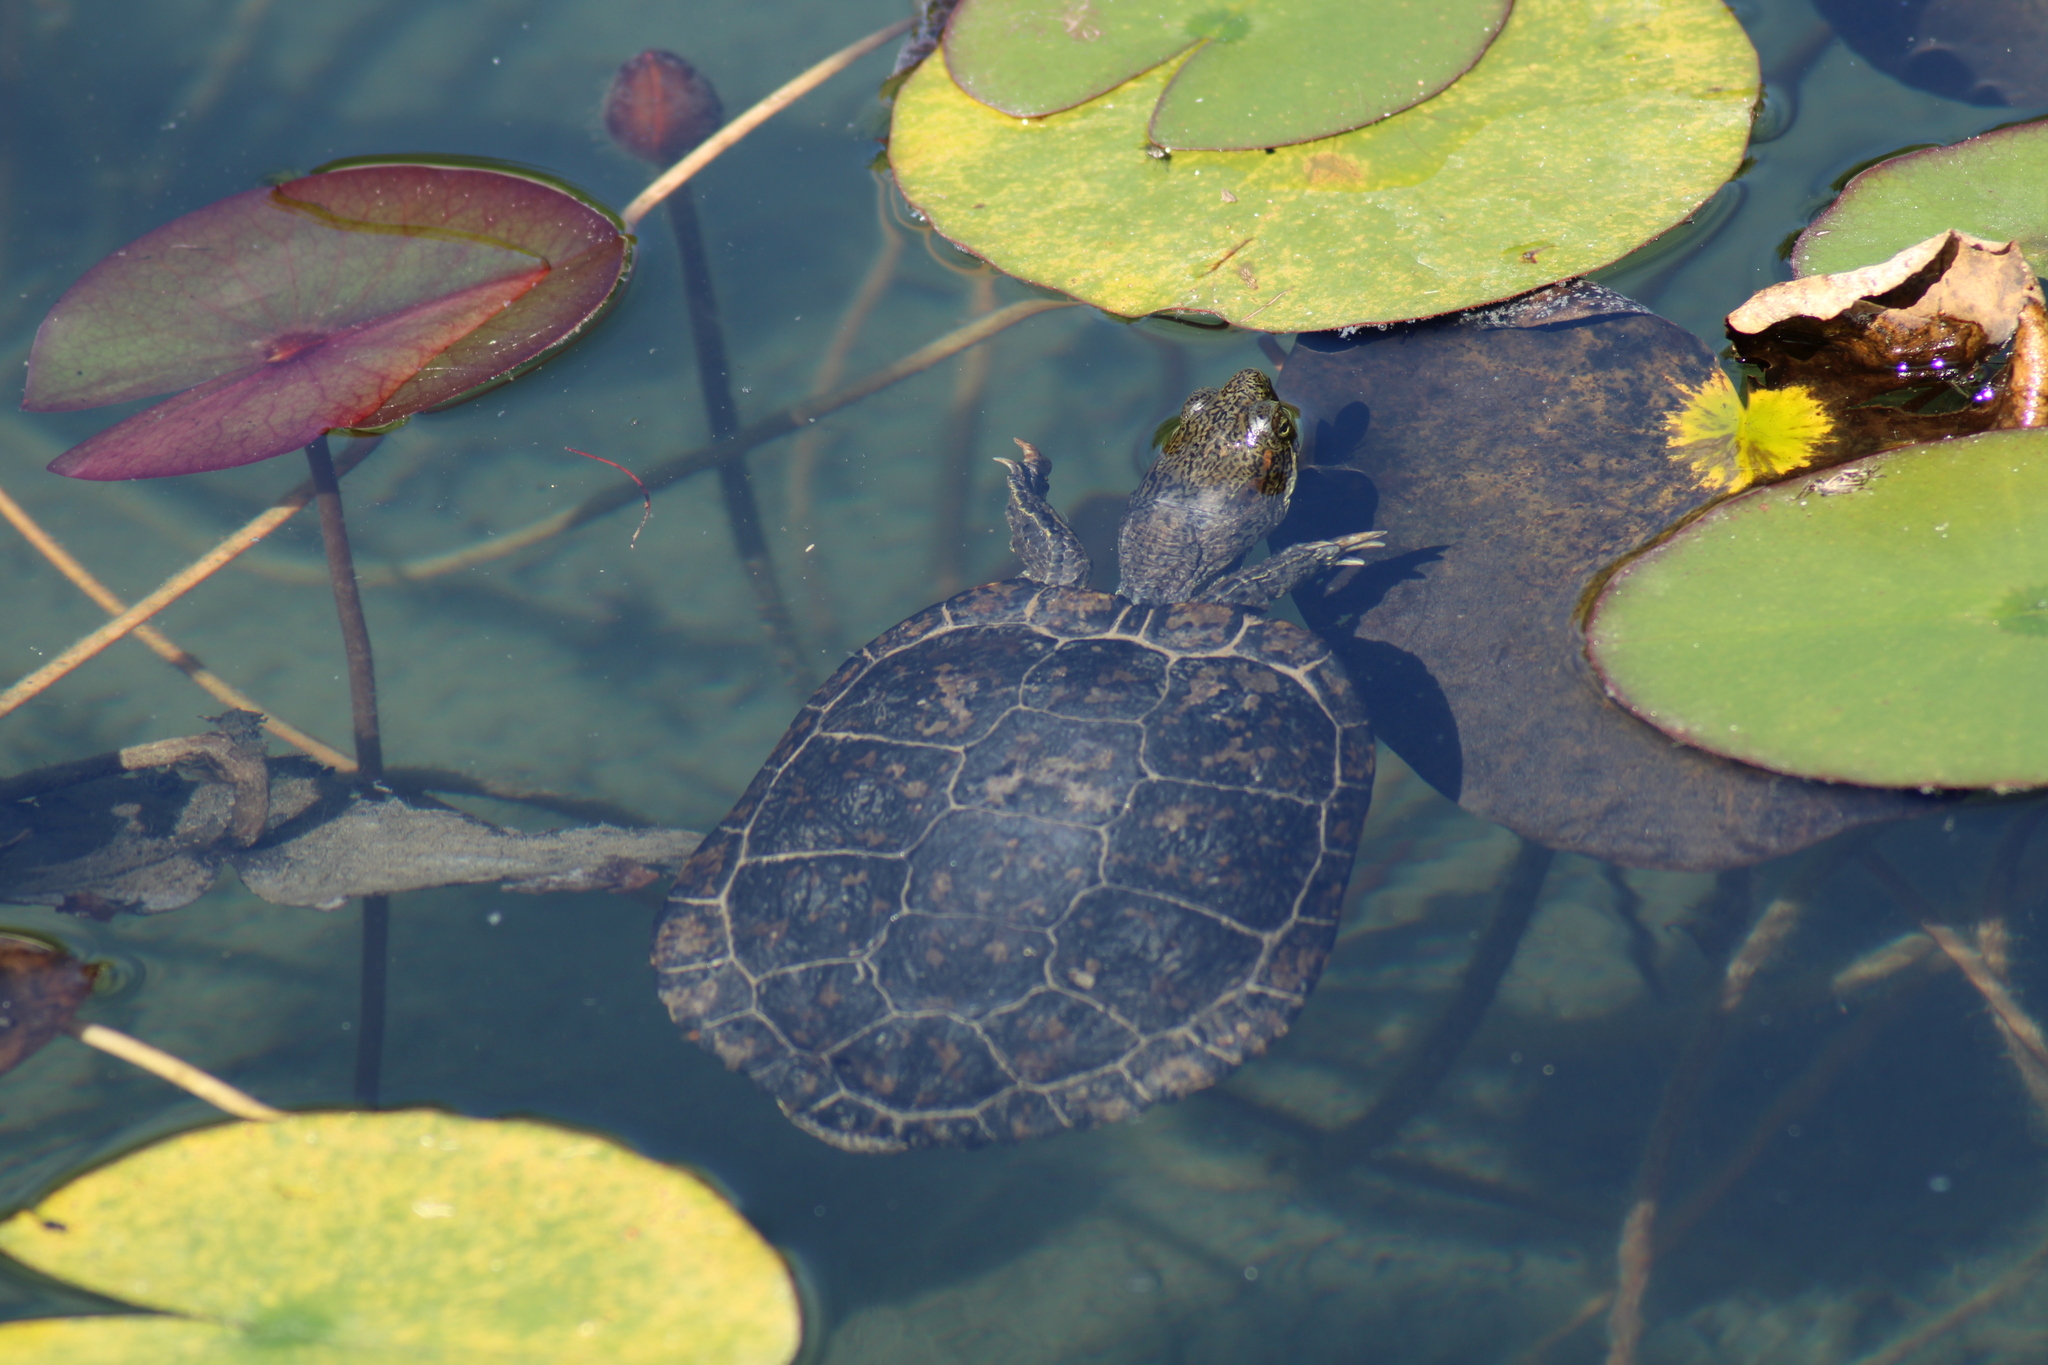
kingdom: Animalia
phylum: Chordata
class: Testudines
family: Emydidae
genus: Trachemys
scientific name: Trachemys scripta
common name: Slider
